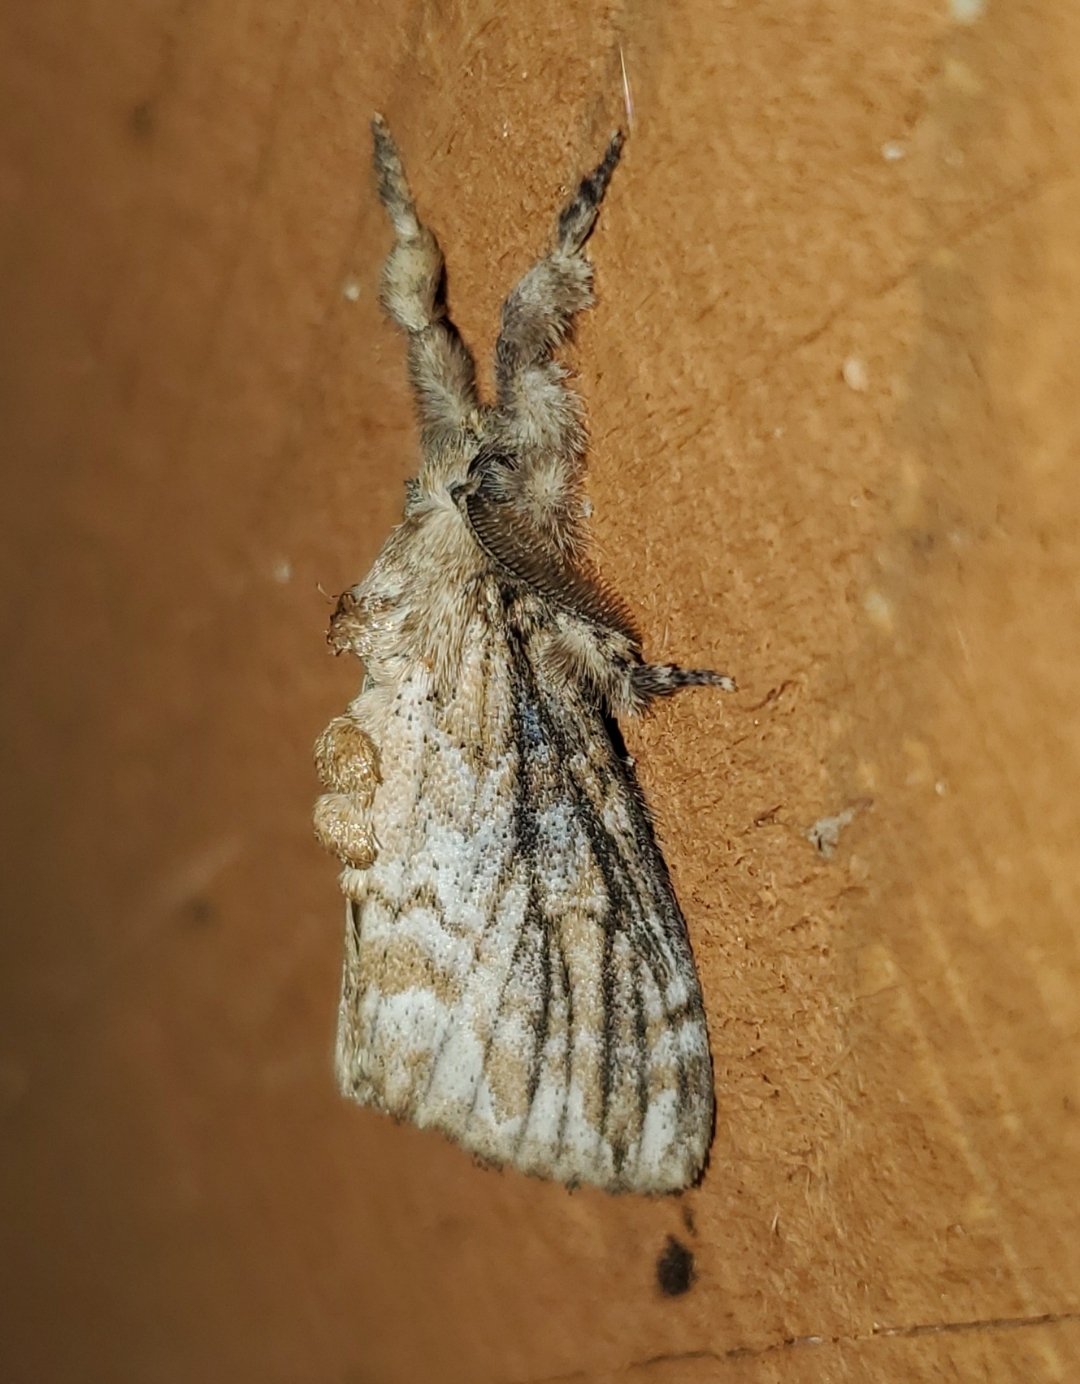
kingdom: Animalia
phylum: Arthropoda
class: Insecta
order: Lepidoptera
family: Erebidae
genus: Dasychira
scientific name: Dasychira atrivenosa
